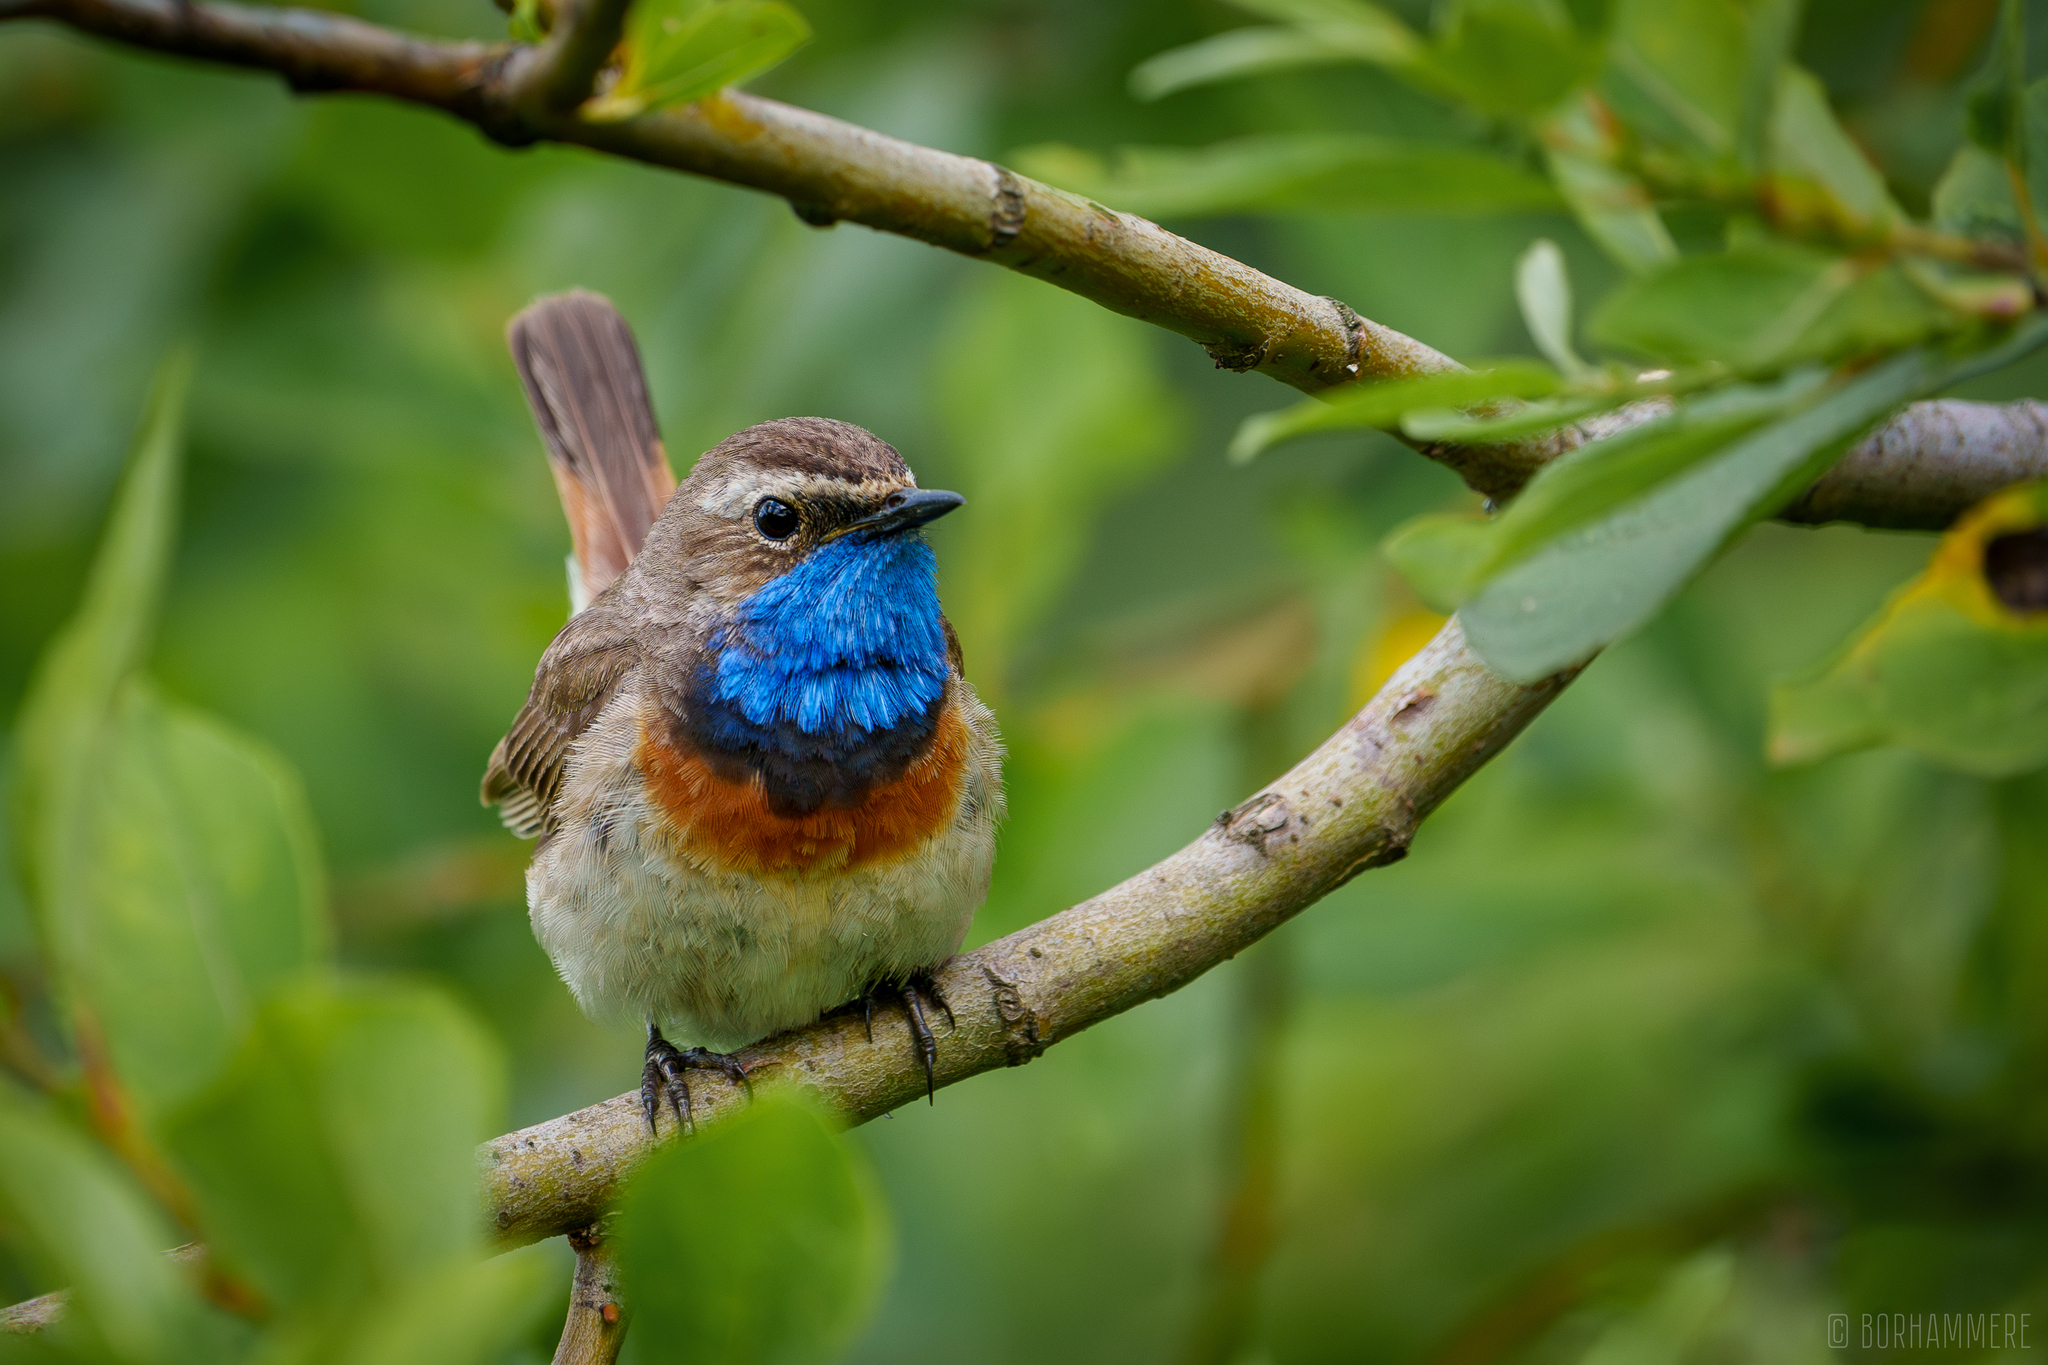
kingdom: Animalia
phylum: Chordata
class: Aves
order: Passeriformes
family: Muscicapidae
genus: Luscinia
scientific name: Luscinia svecica
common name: Bluethroat
